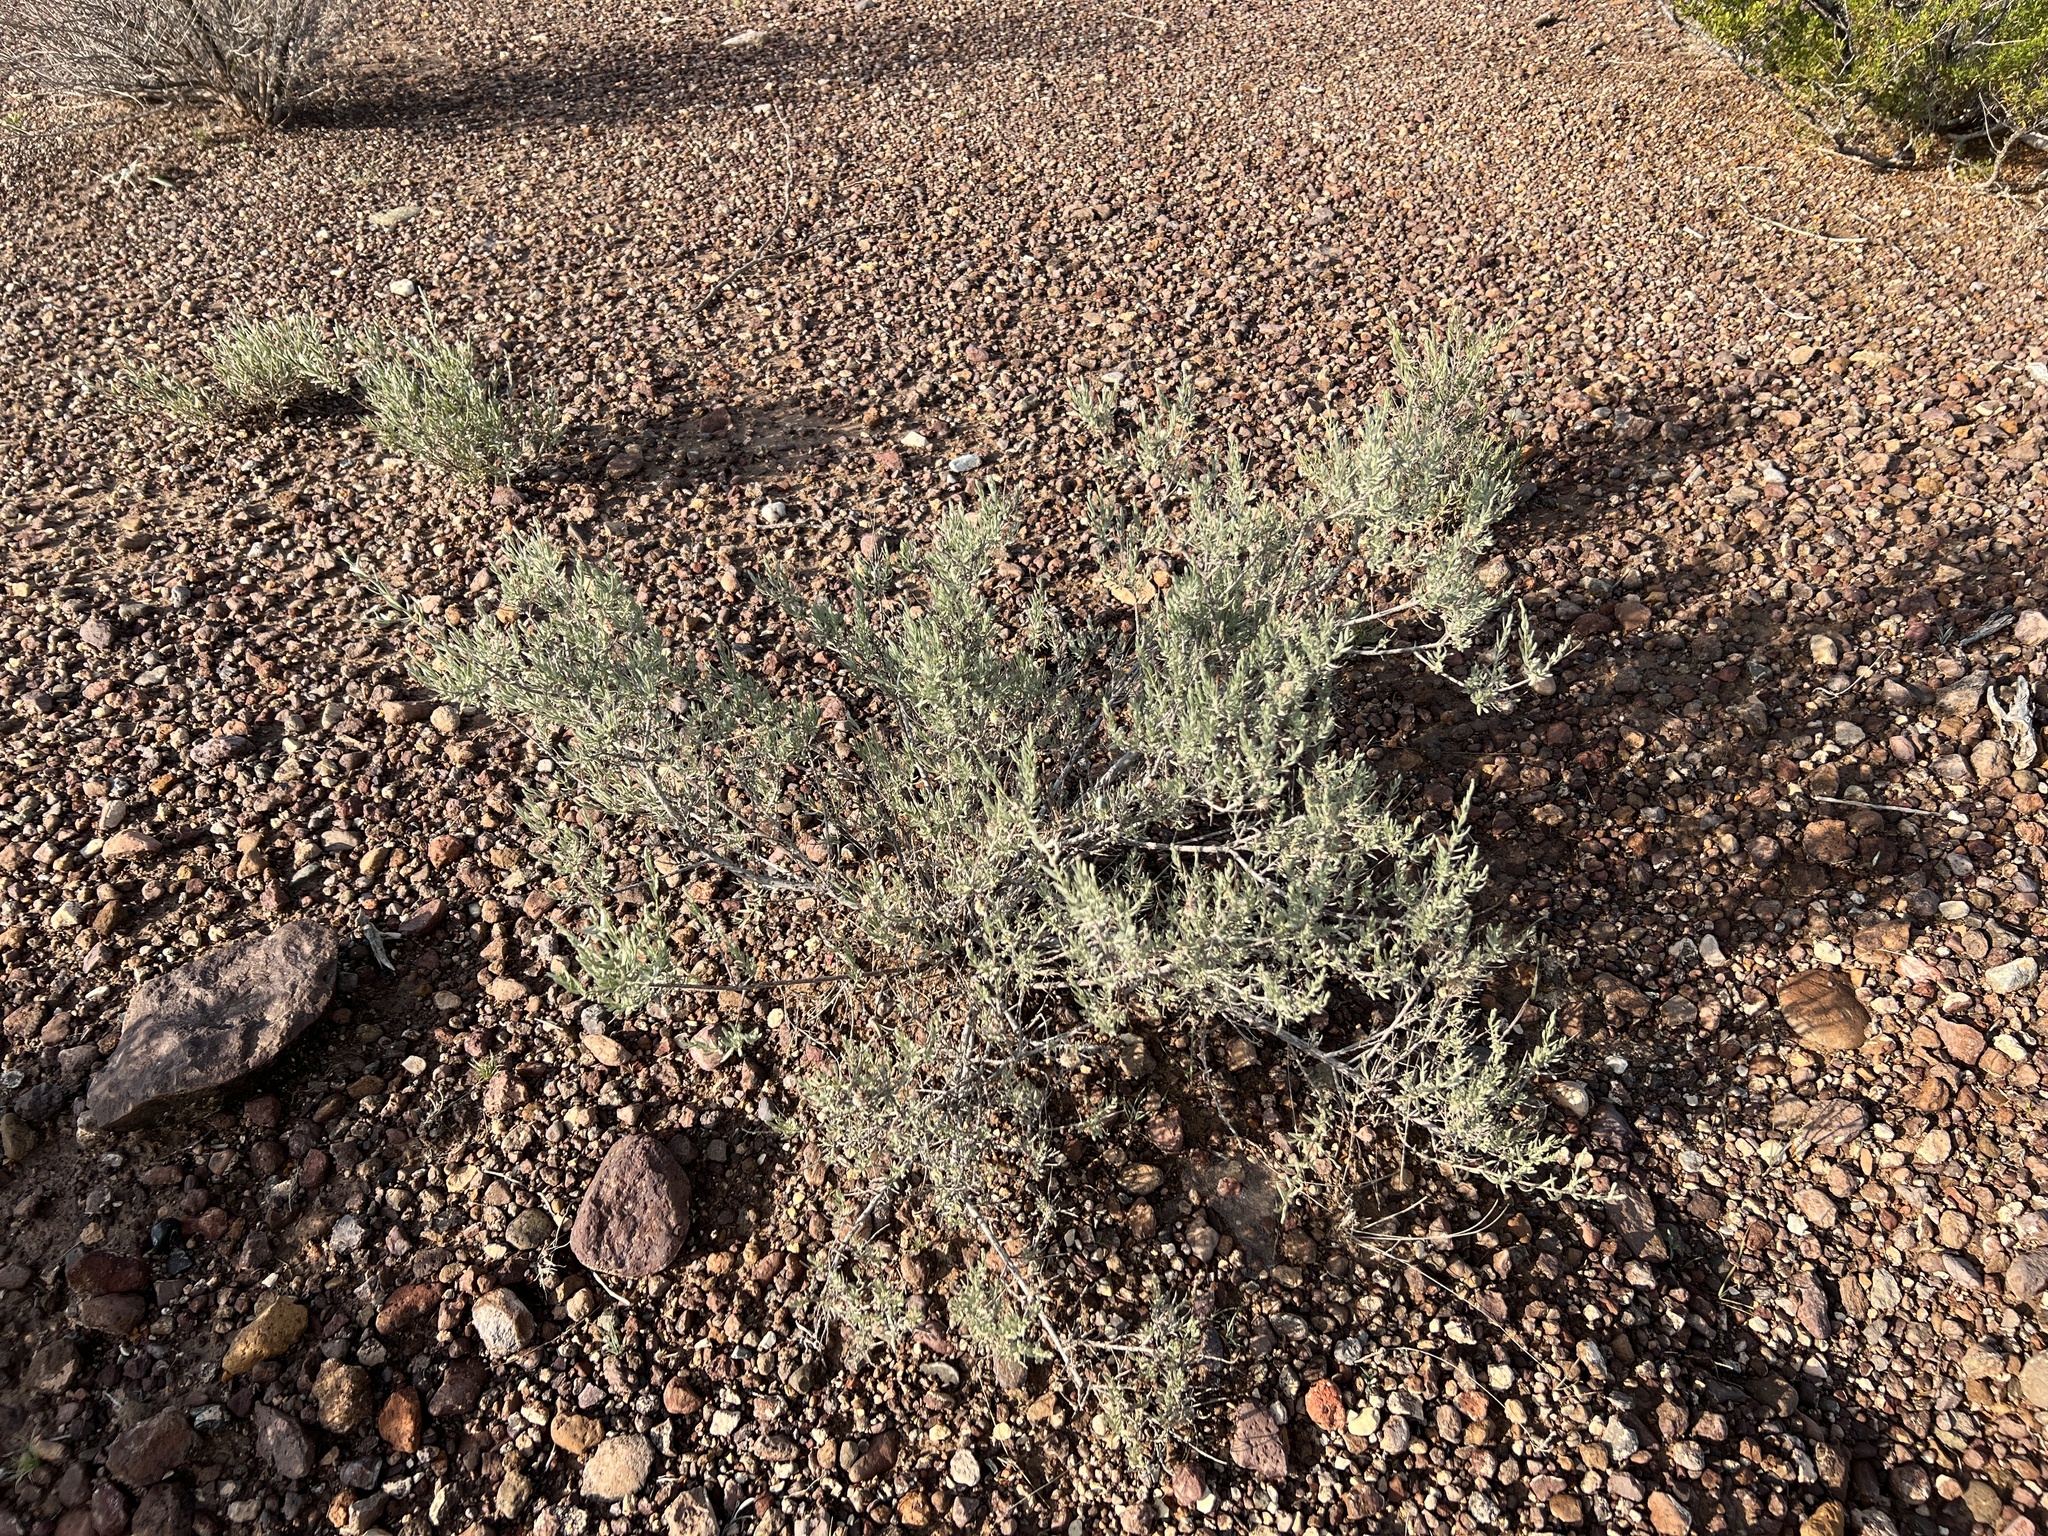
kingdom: Plantae
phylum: Tracheophyta
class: Magnoliopsida
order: Caryophyllales
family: Amaranthaceae
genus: Atriplex
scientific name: Atriplex canescens
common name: Four-wing saltbush
